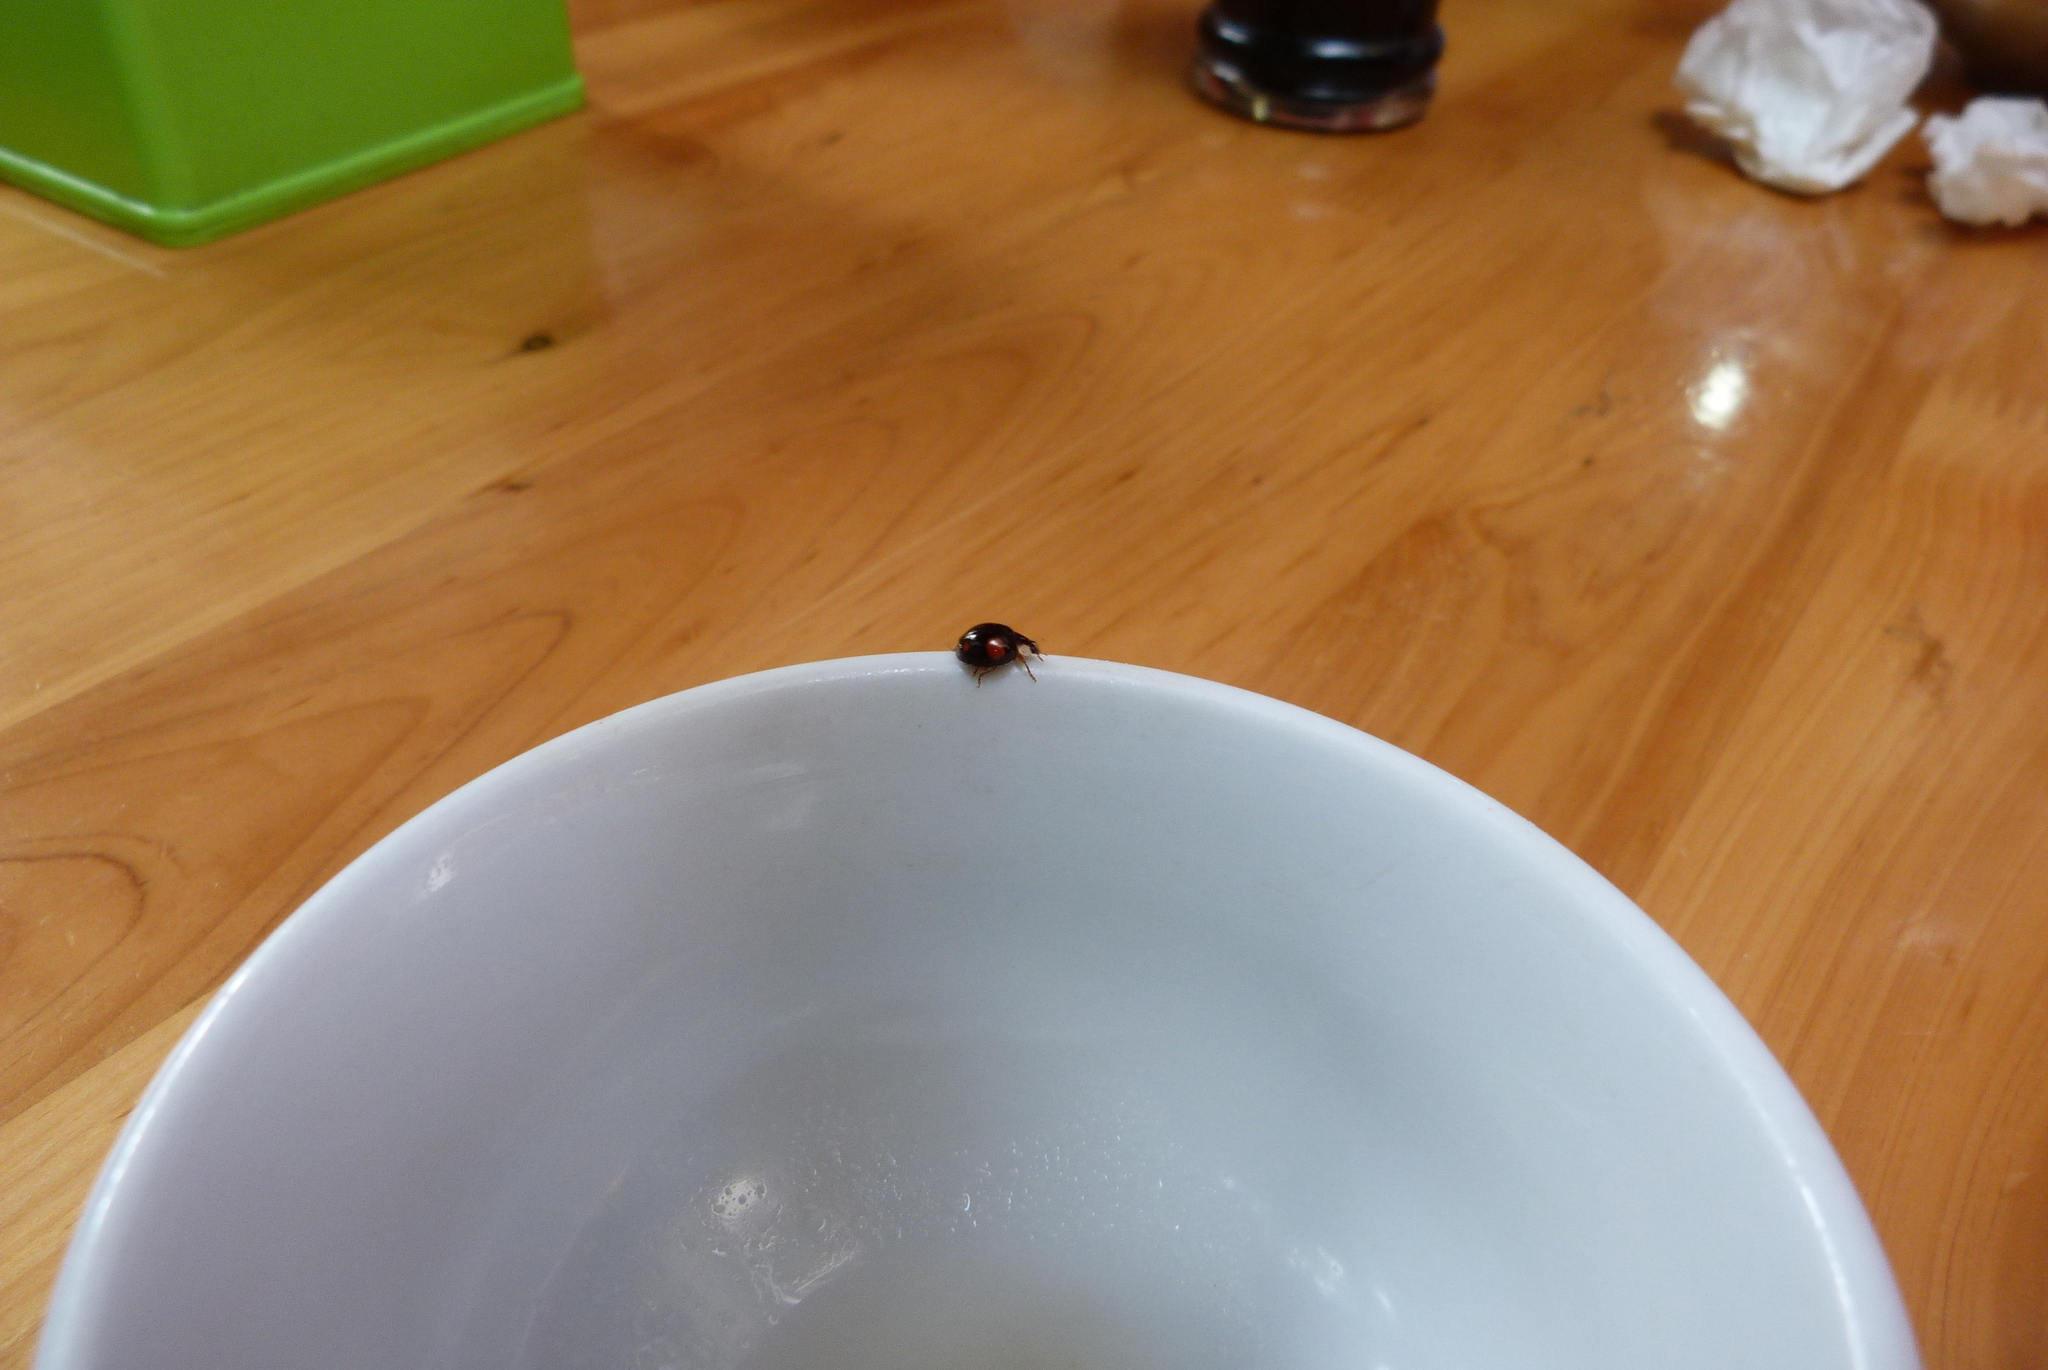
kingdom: Animalia
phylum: Arthropoda
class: Insecta
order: Coleoptera
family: Coccinellidae
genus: Harmonia
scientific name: Harmonia axyridis
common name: Harlequin ladybird
